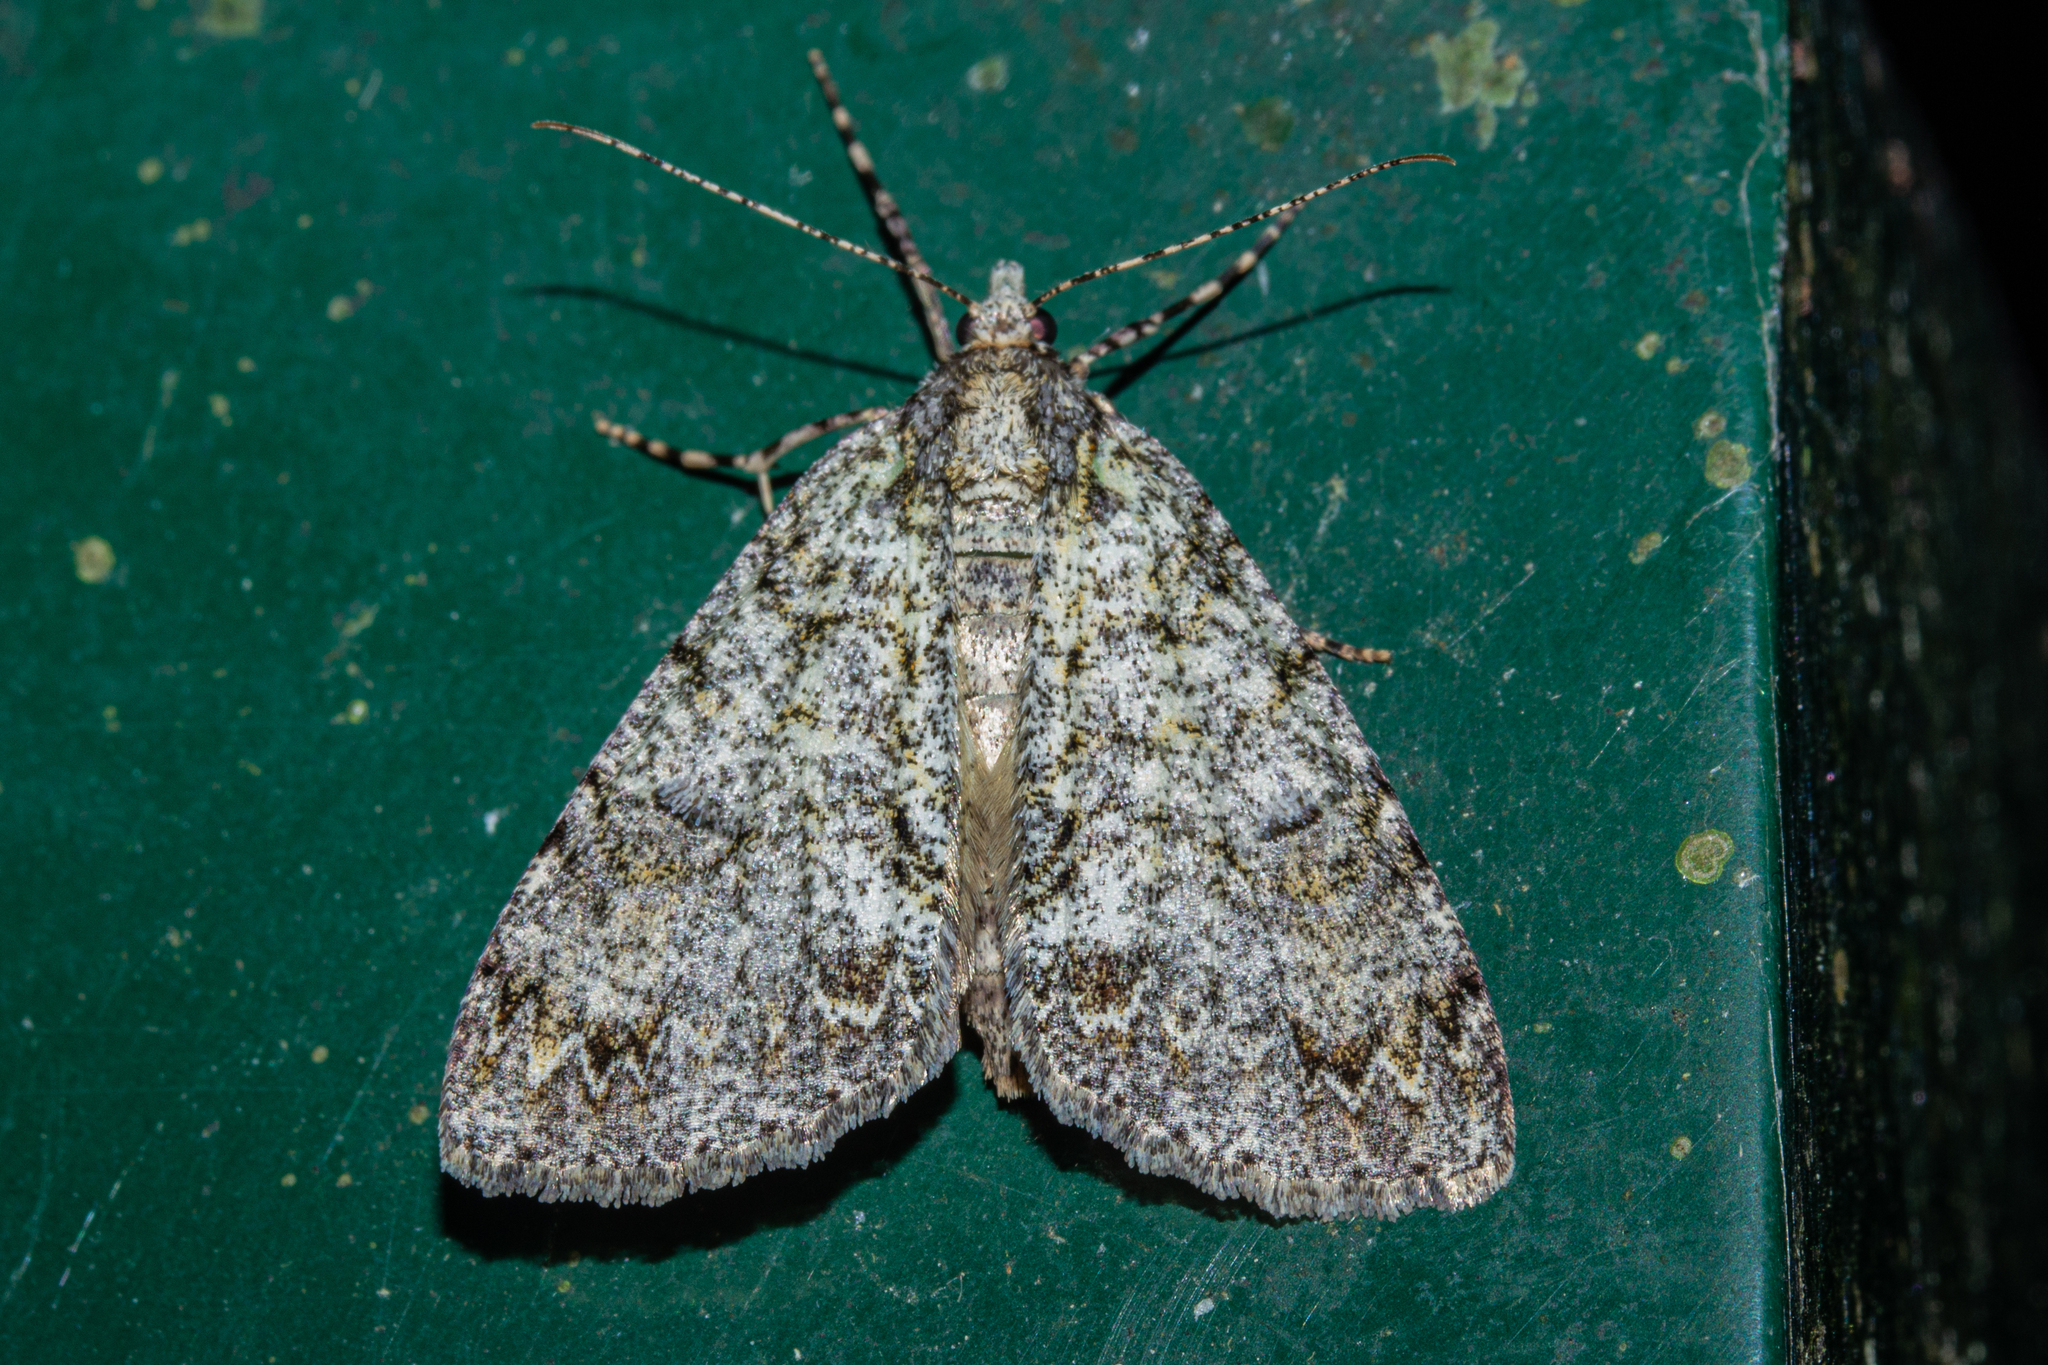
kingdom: Animalia
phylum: Arthropoda
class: Insecta
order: Lepidoptera
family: Geometridae
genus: Pseudocoremia
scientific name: Pseudocoremia suavis
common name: Common forest looper
